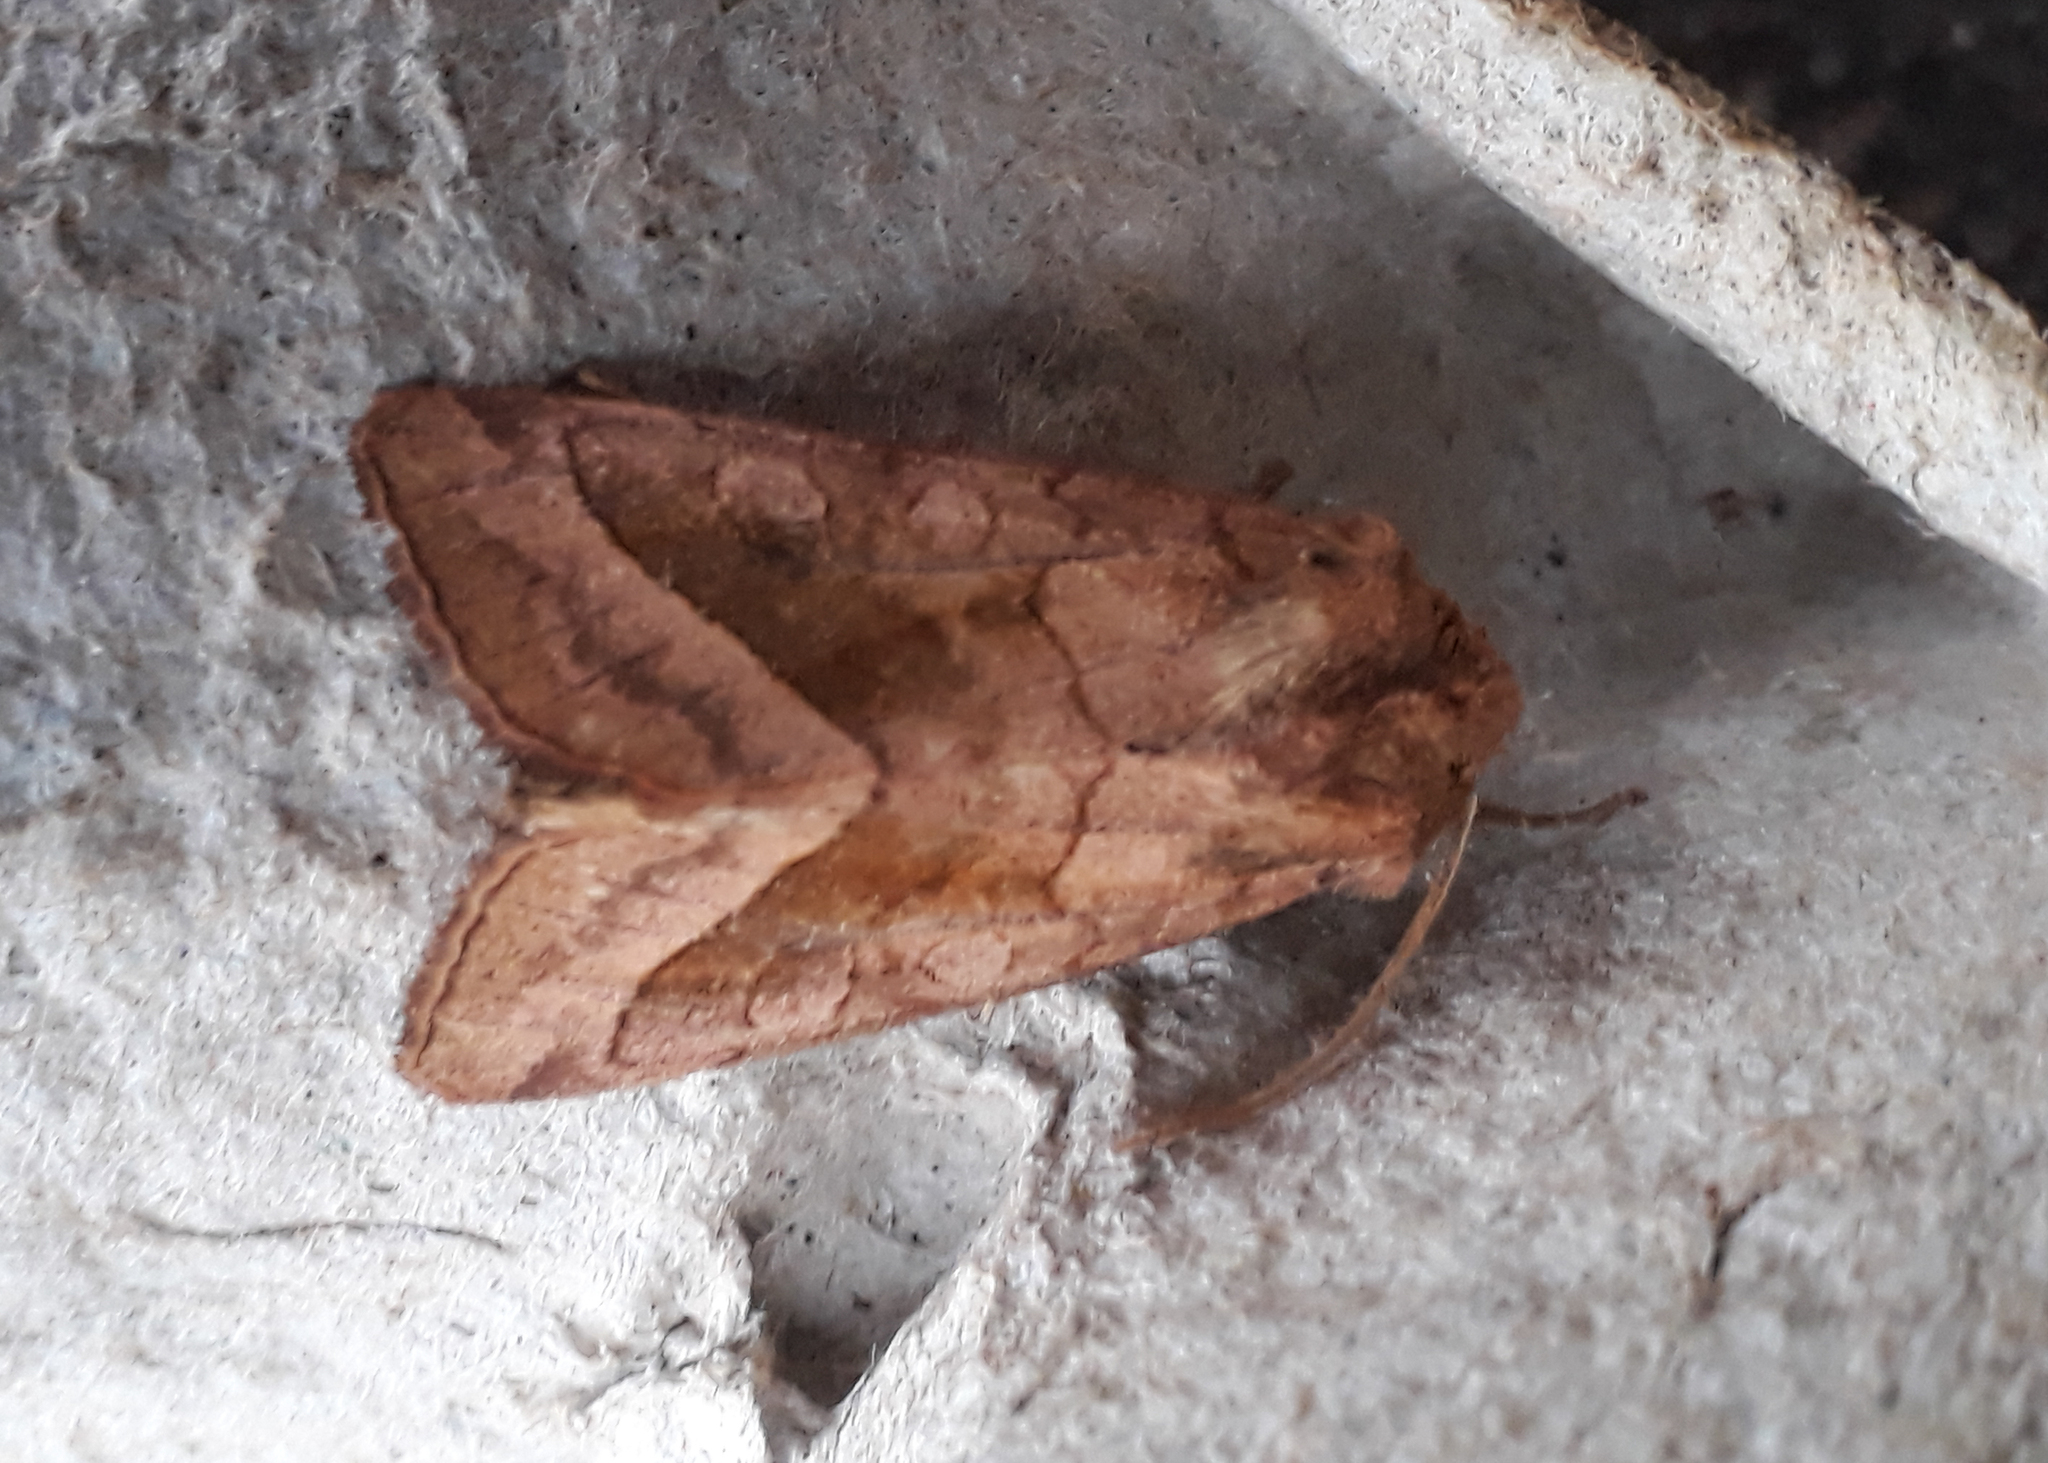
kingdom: Animalia
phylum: Arthropoda
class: Insecta
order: Lepidoptera
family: Noctuidae
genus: Hydraecia
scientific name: Hydraecia micacea
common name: Rosy rustic
